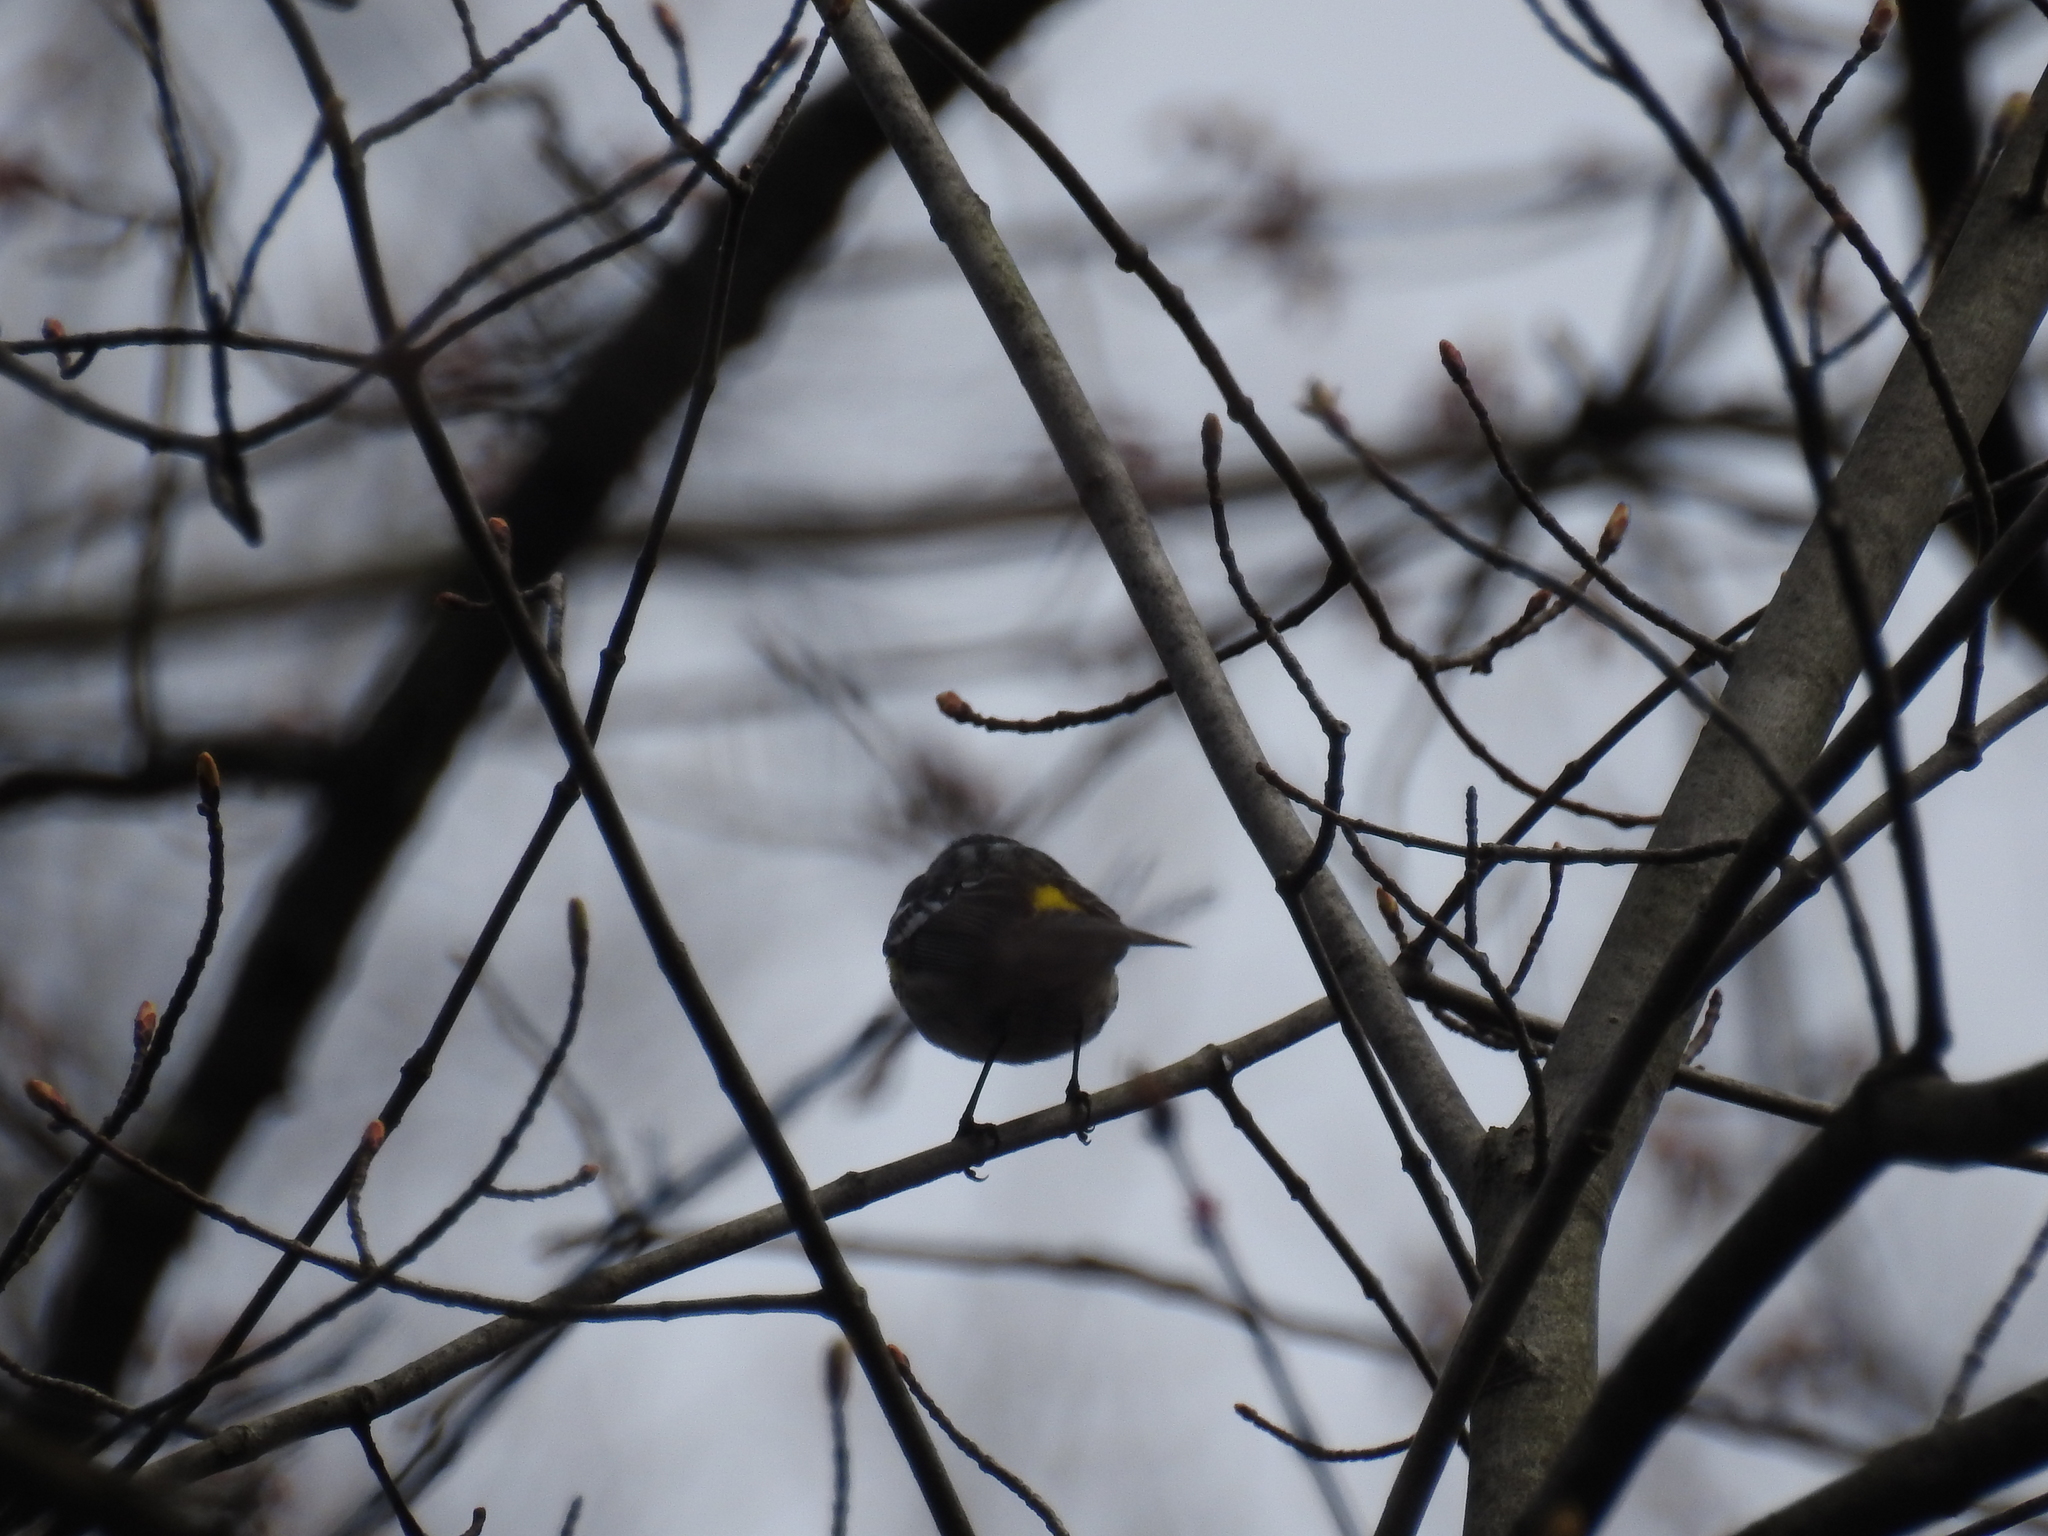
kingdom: Animalia
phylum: Chordata
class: Aves
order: Passeriformes
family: Parulidae
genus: Setophaga
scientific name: Setophaga coronata
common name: Myrtle warbler
